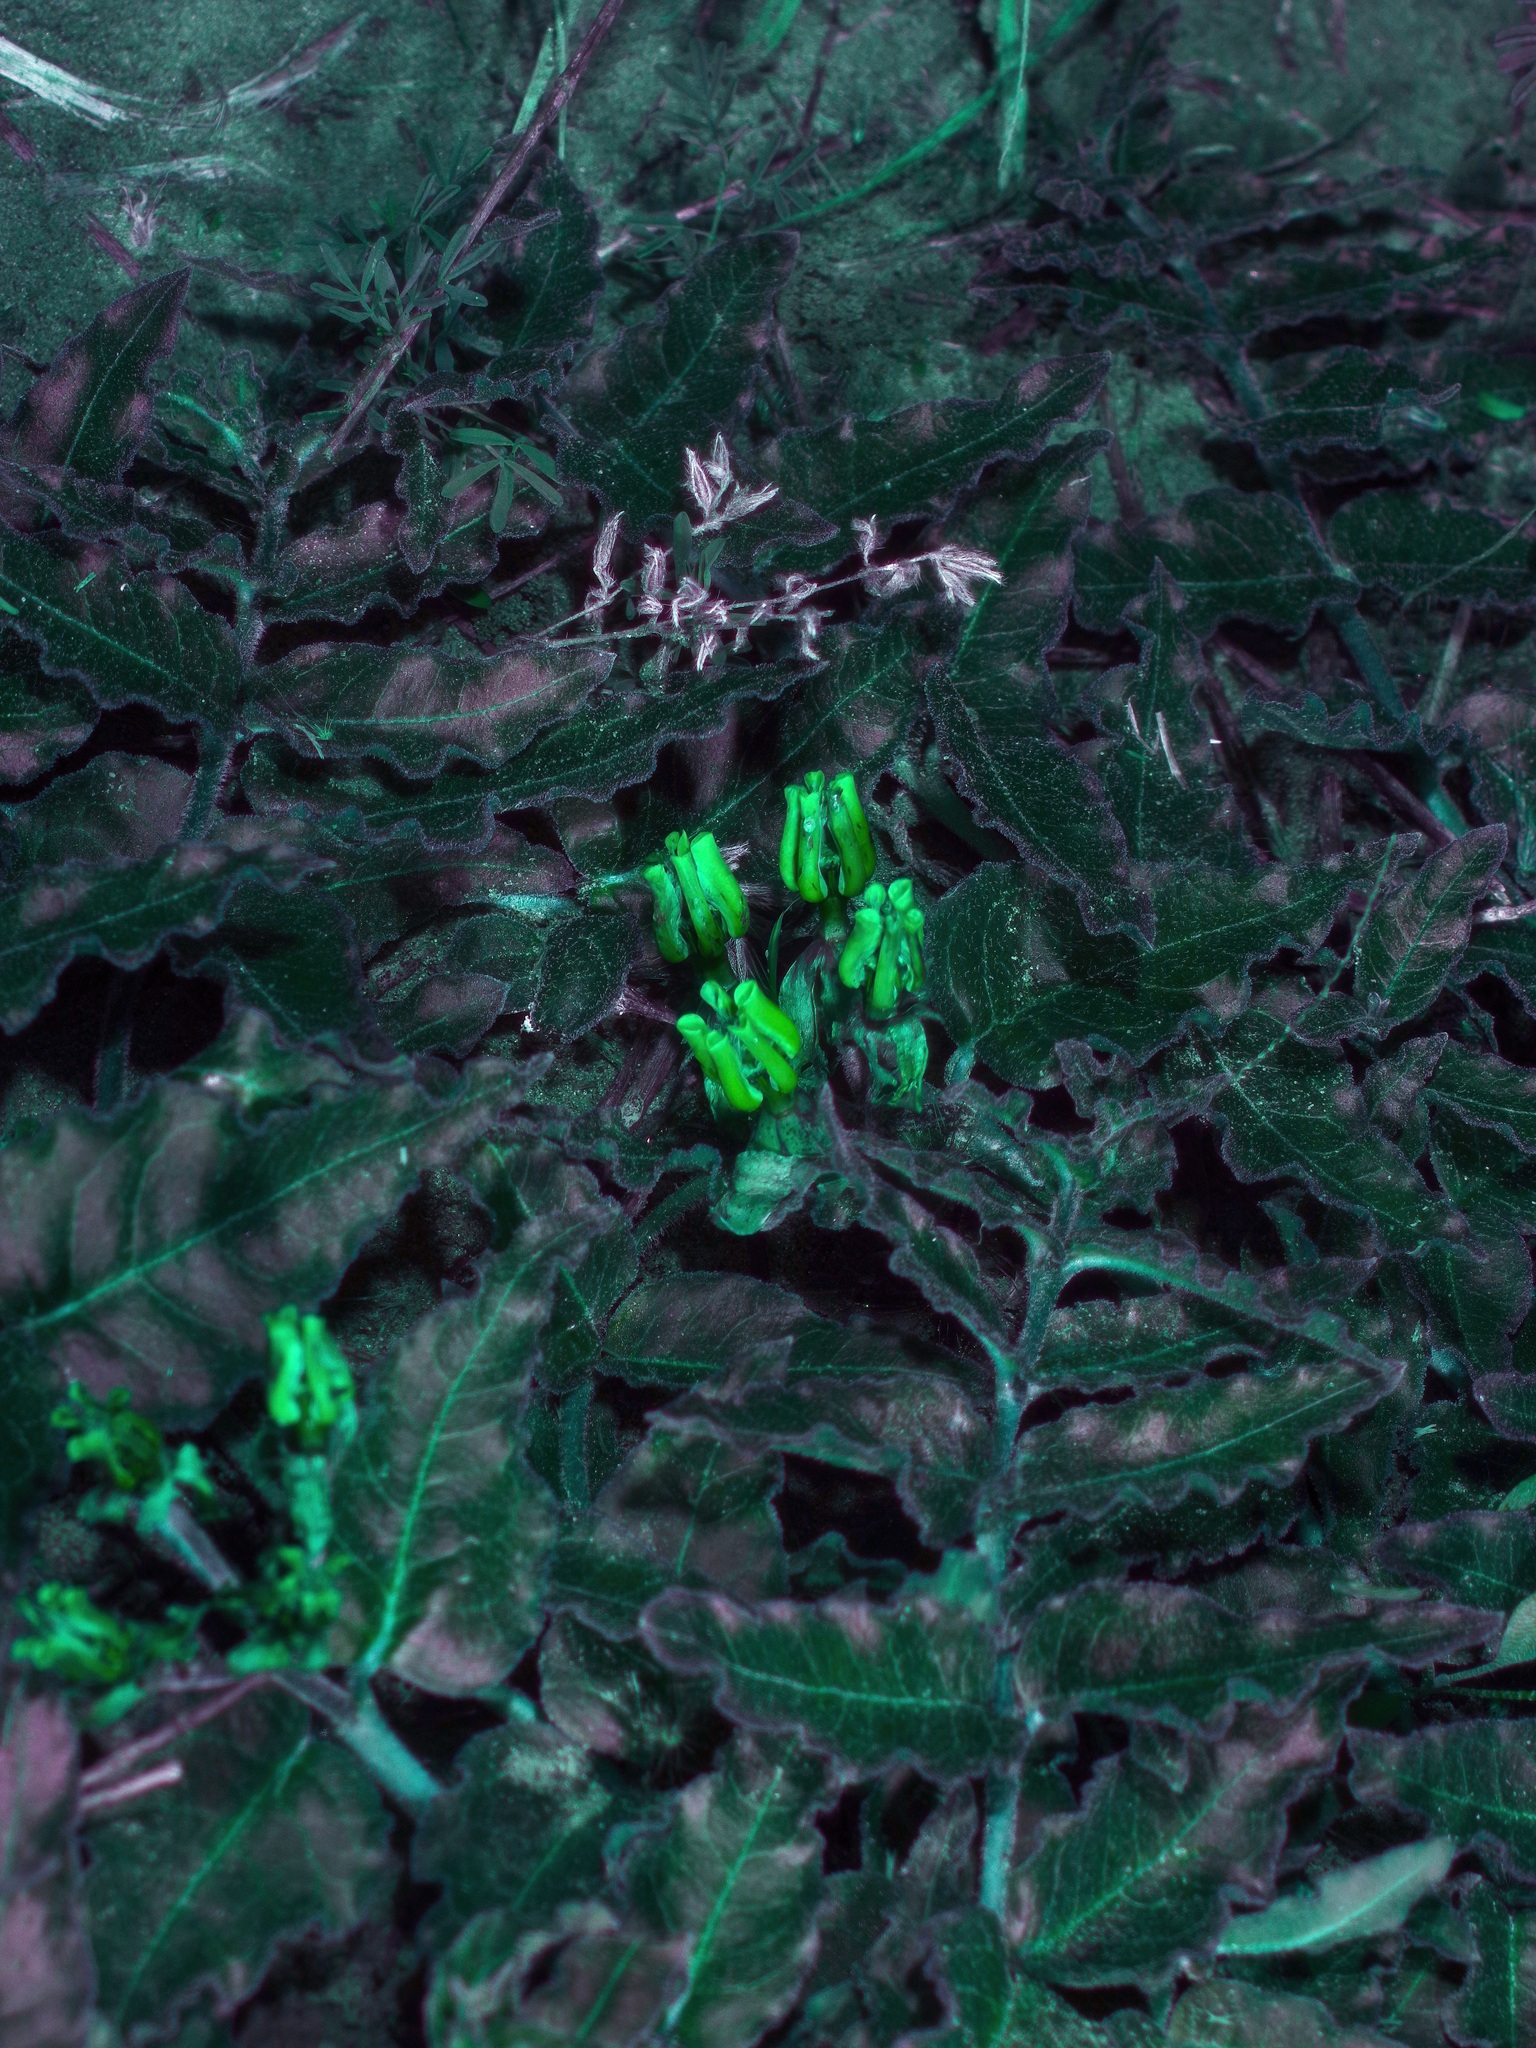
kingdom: Plantae
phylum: Tracheophyta
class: Magnoliopsida
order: Gentianales
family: Apocynaceae
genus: Asclepias
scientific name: Asclepias prostrata
